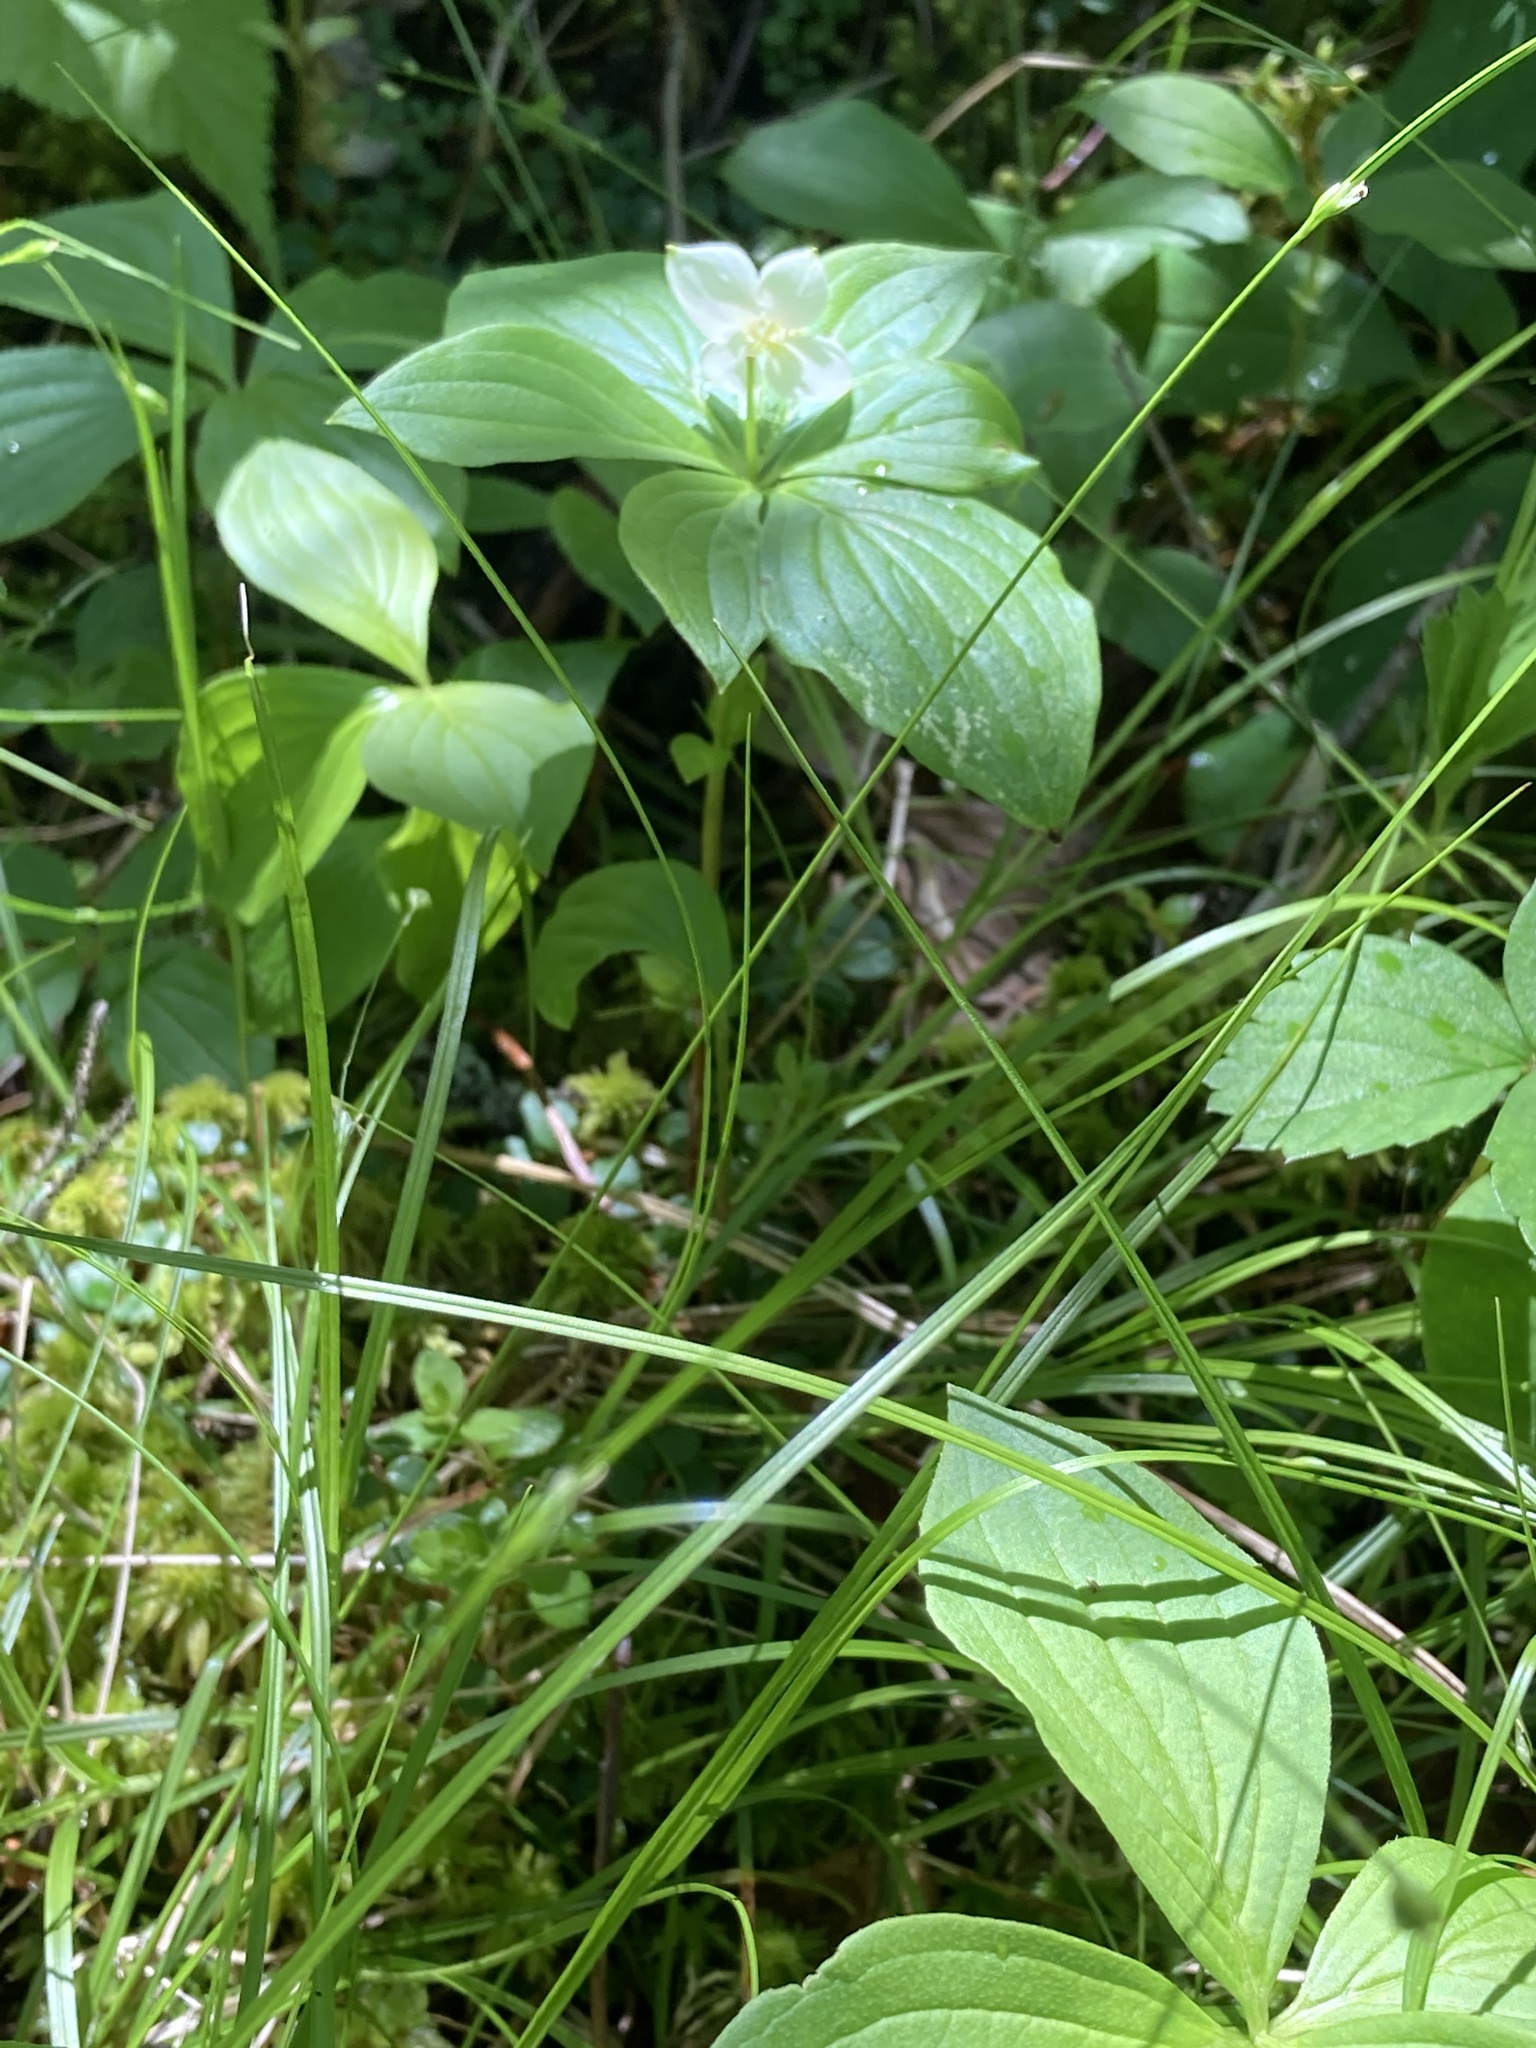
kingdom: Plantae
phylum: Tracheophyta
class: Magnoliopsida
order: Cornales
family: Cornaceae
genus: Cornus
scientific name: Cornus canadensis
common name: Creeping dogwood
